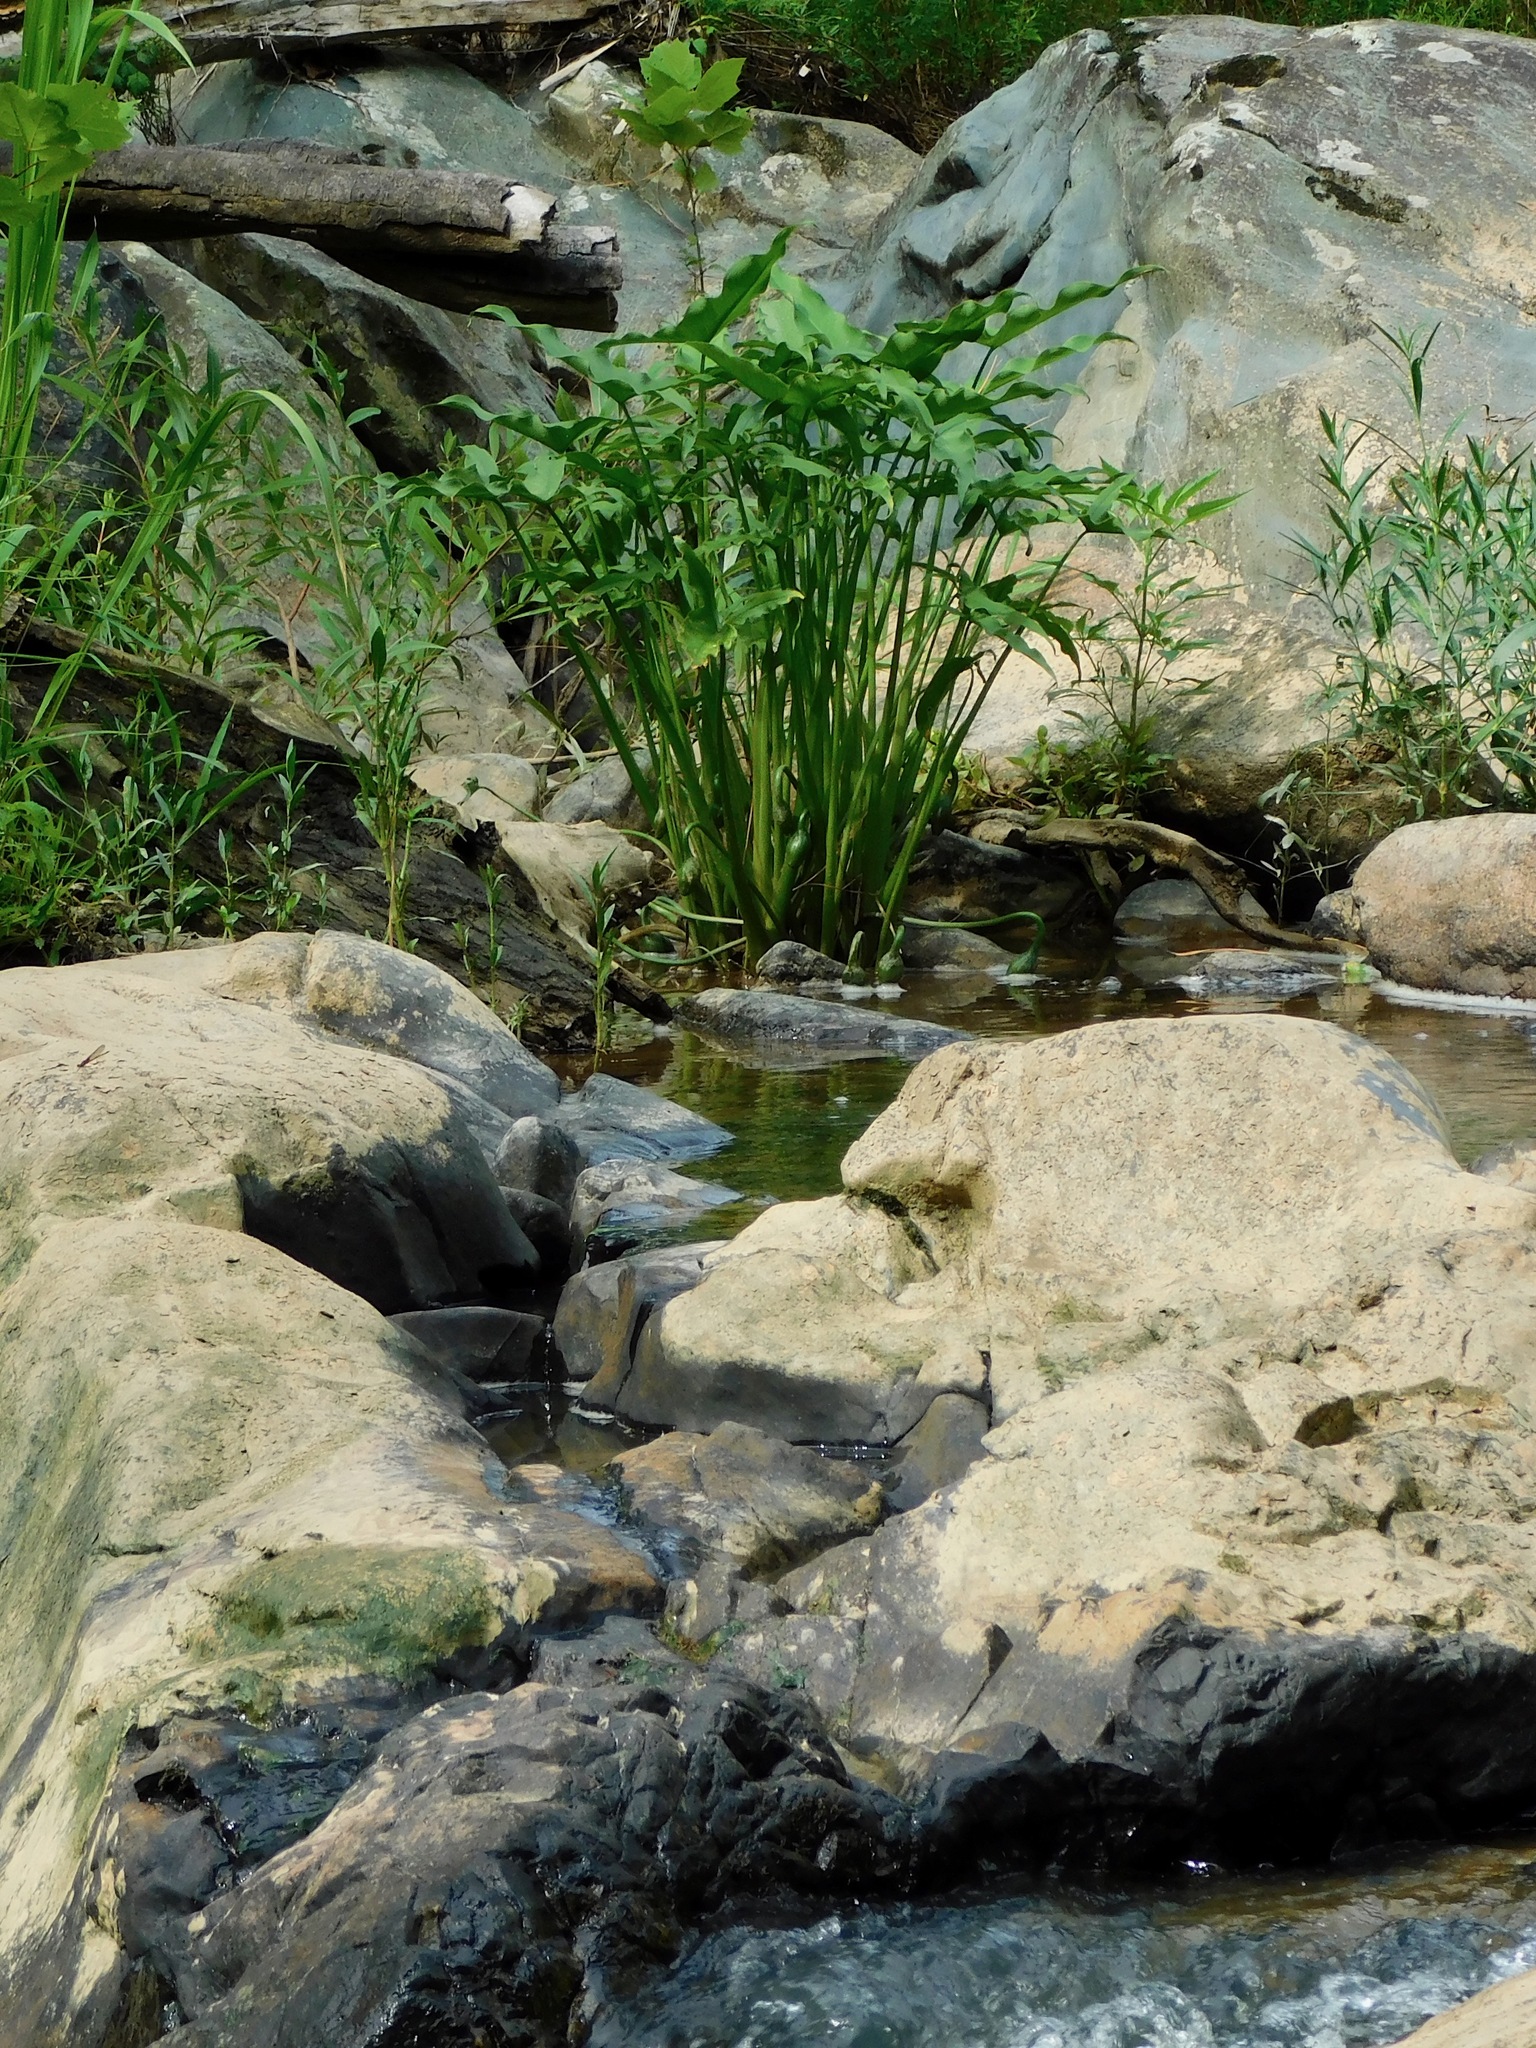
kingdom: Plantae
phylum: Tracheophyta
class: Liliopsida
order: Alismatales
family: Araceae
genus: Peltandra
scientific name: Peltandra virginica
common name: Arrow arum
